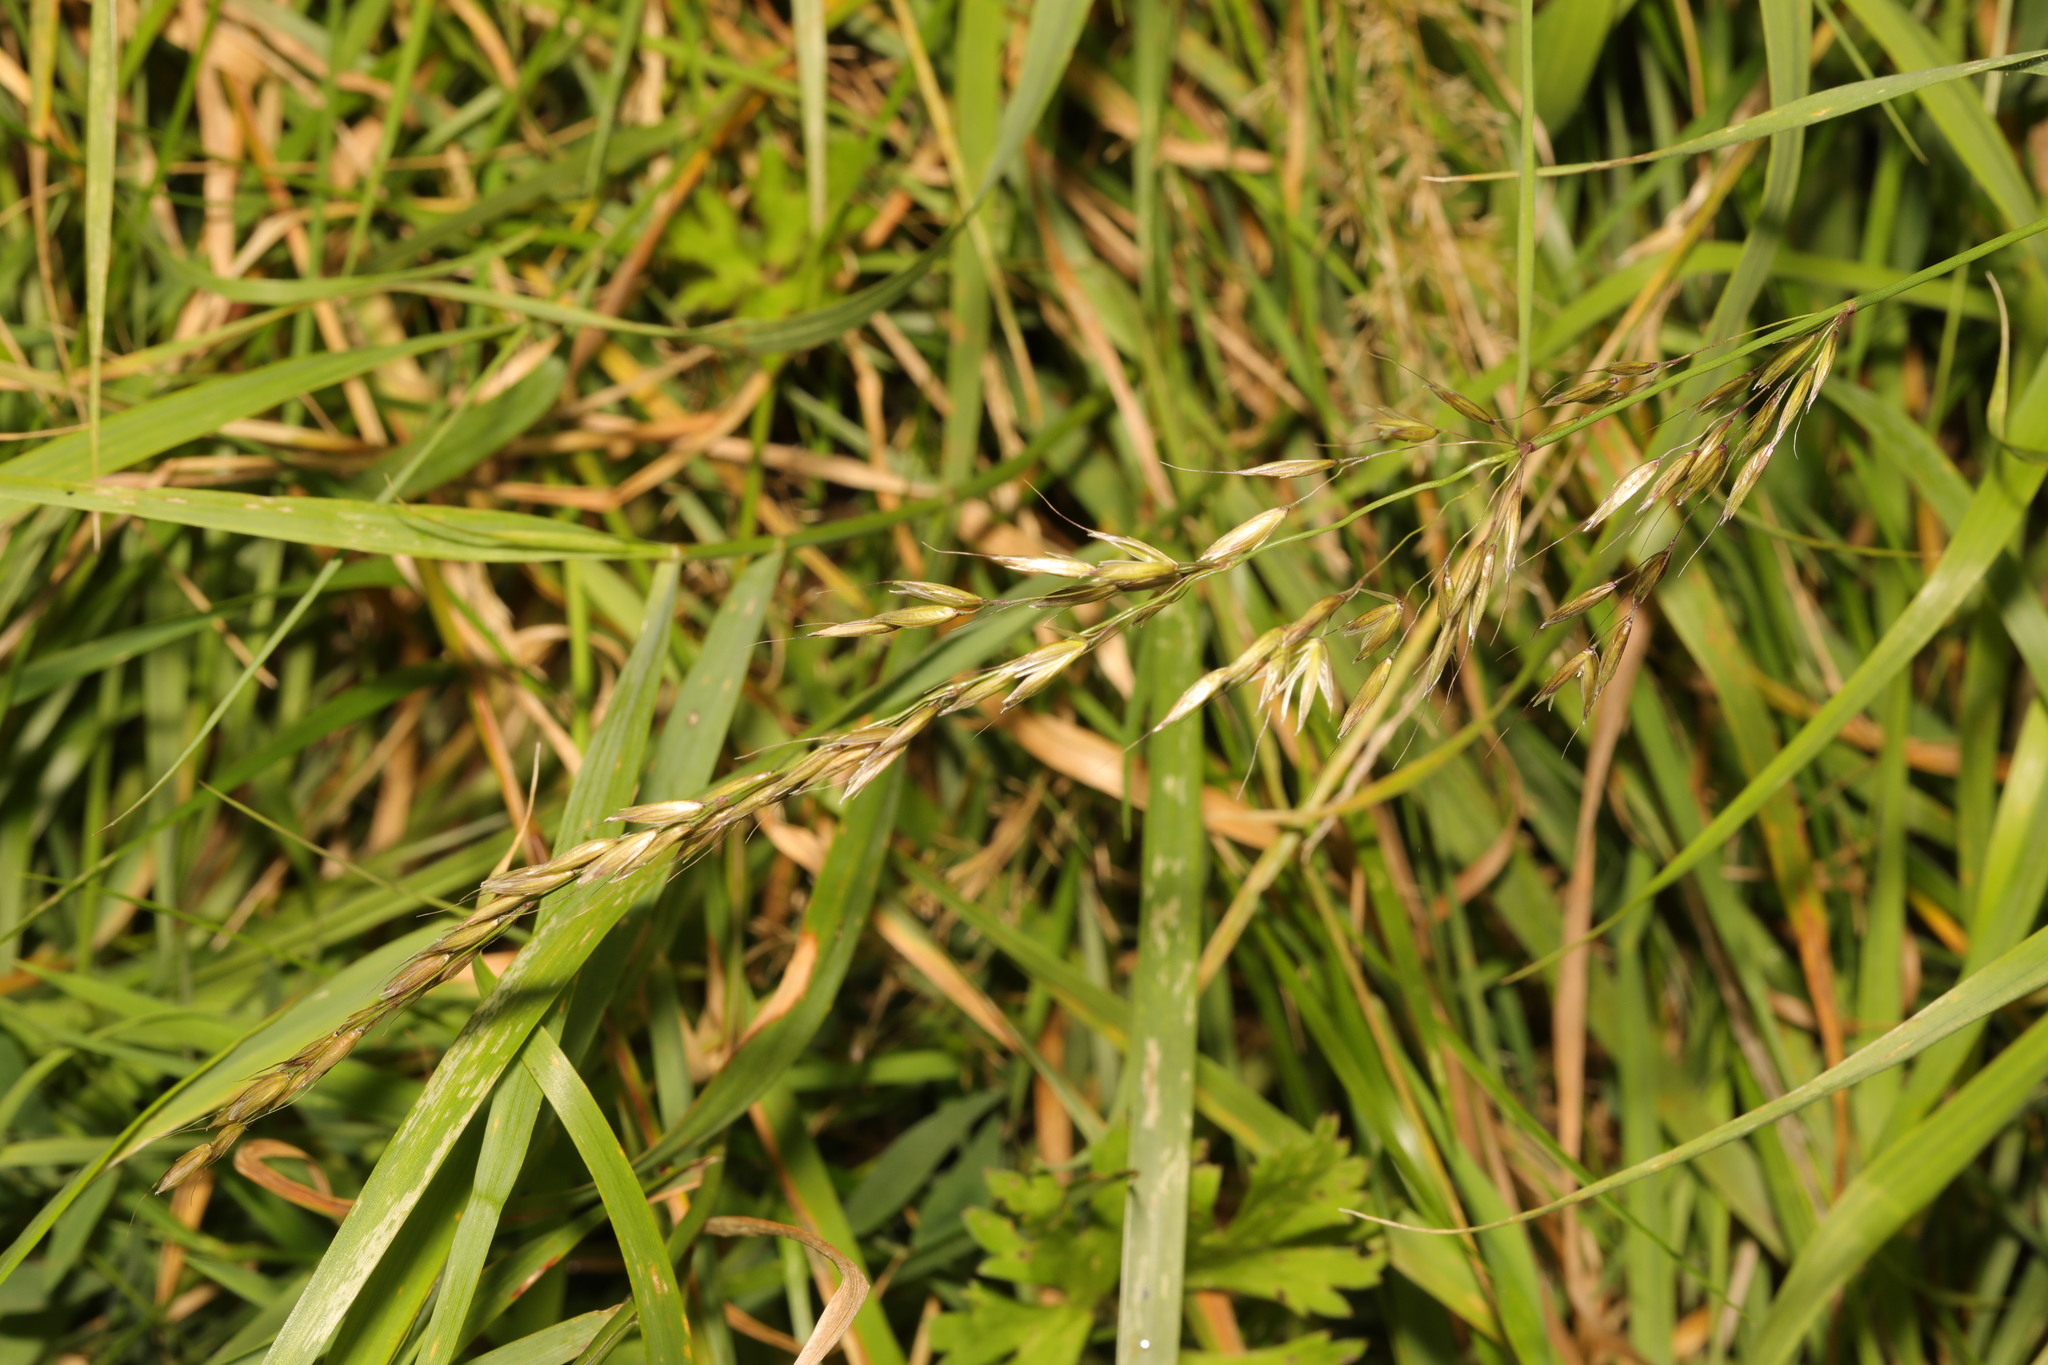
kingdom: Plantae
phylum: Tracheophyta
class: Liliopsida
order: Poales
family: Poaceae
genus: Arrhenatherum
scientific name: Arrhenatherum elatius
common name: Tall oatgrass
